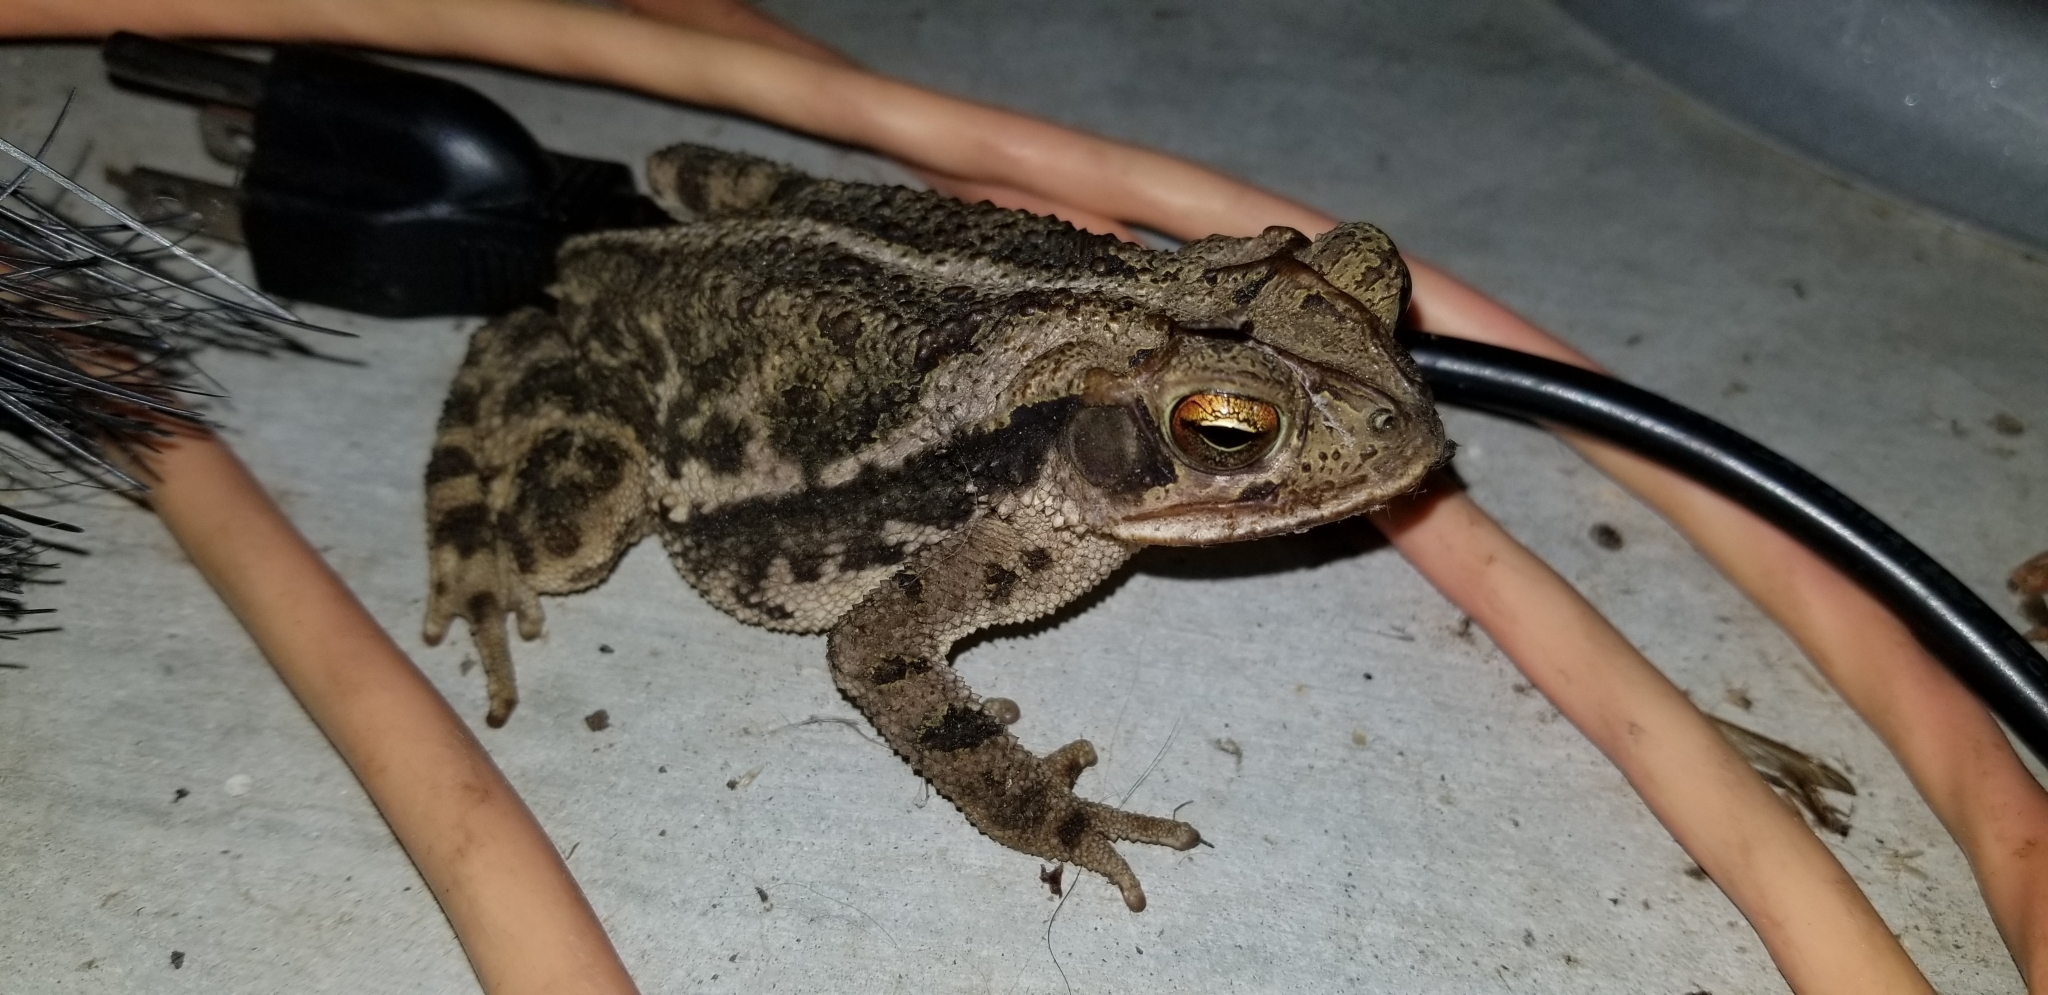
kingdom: Animalia
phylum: Chordata
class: Amphibia
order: Anura
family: Bufonidae
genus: Incilius
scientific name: Incilius nebulifer
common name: Gulf coast toad
